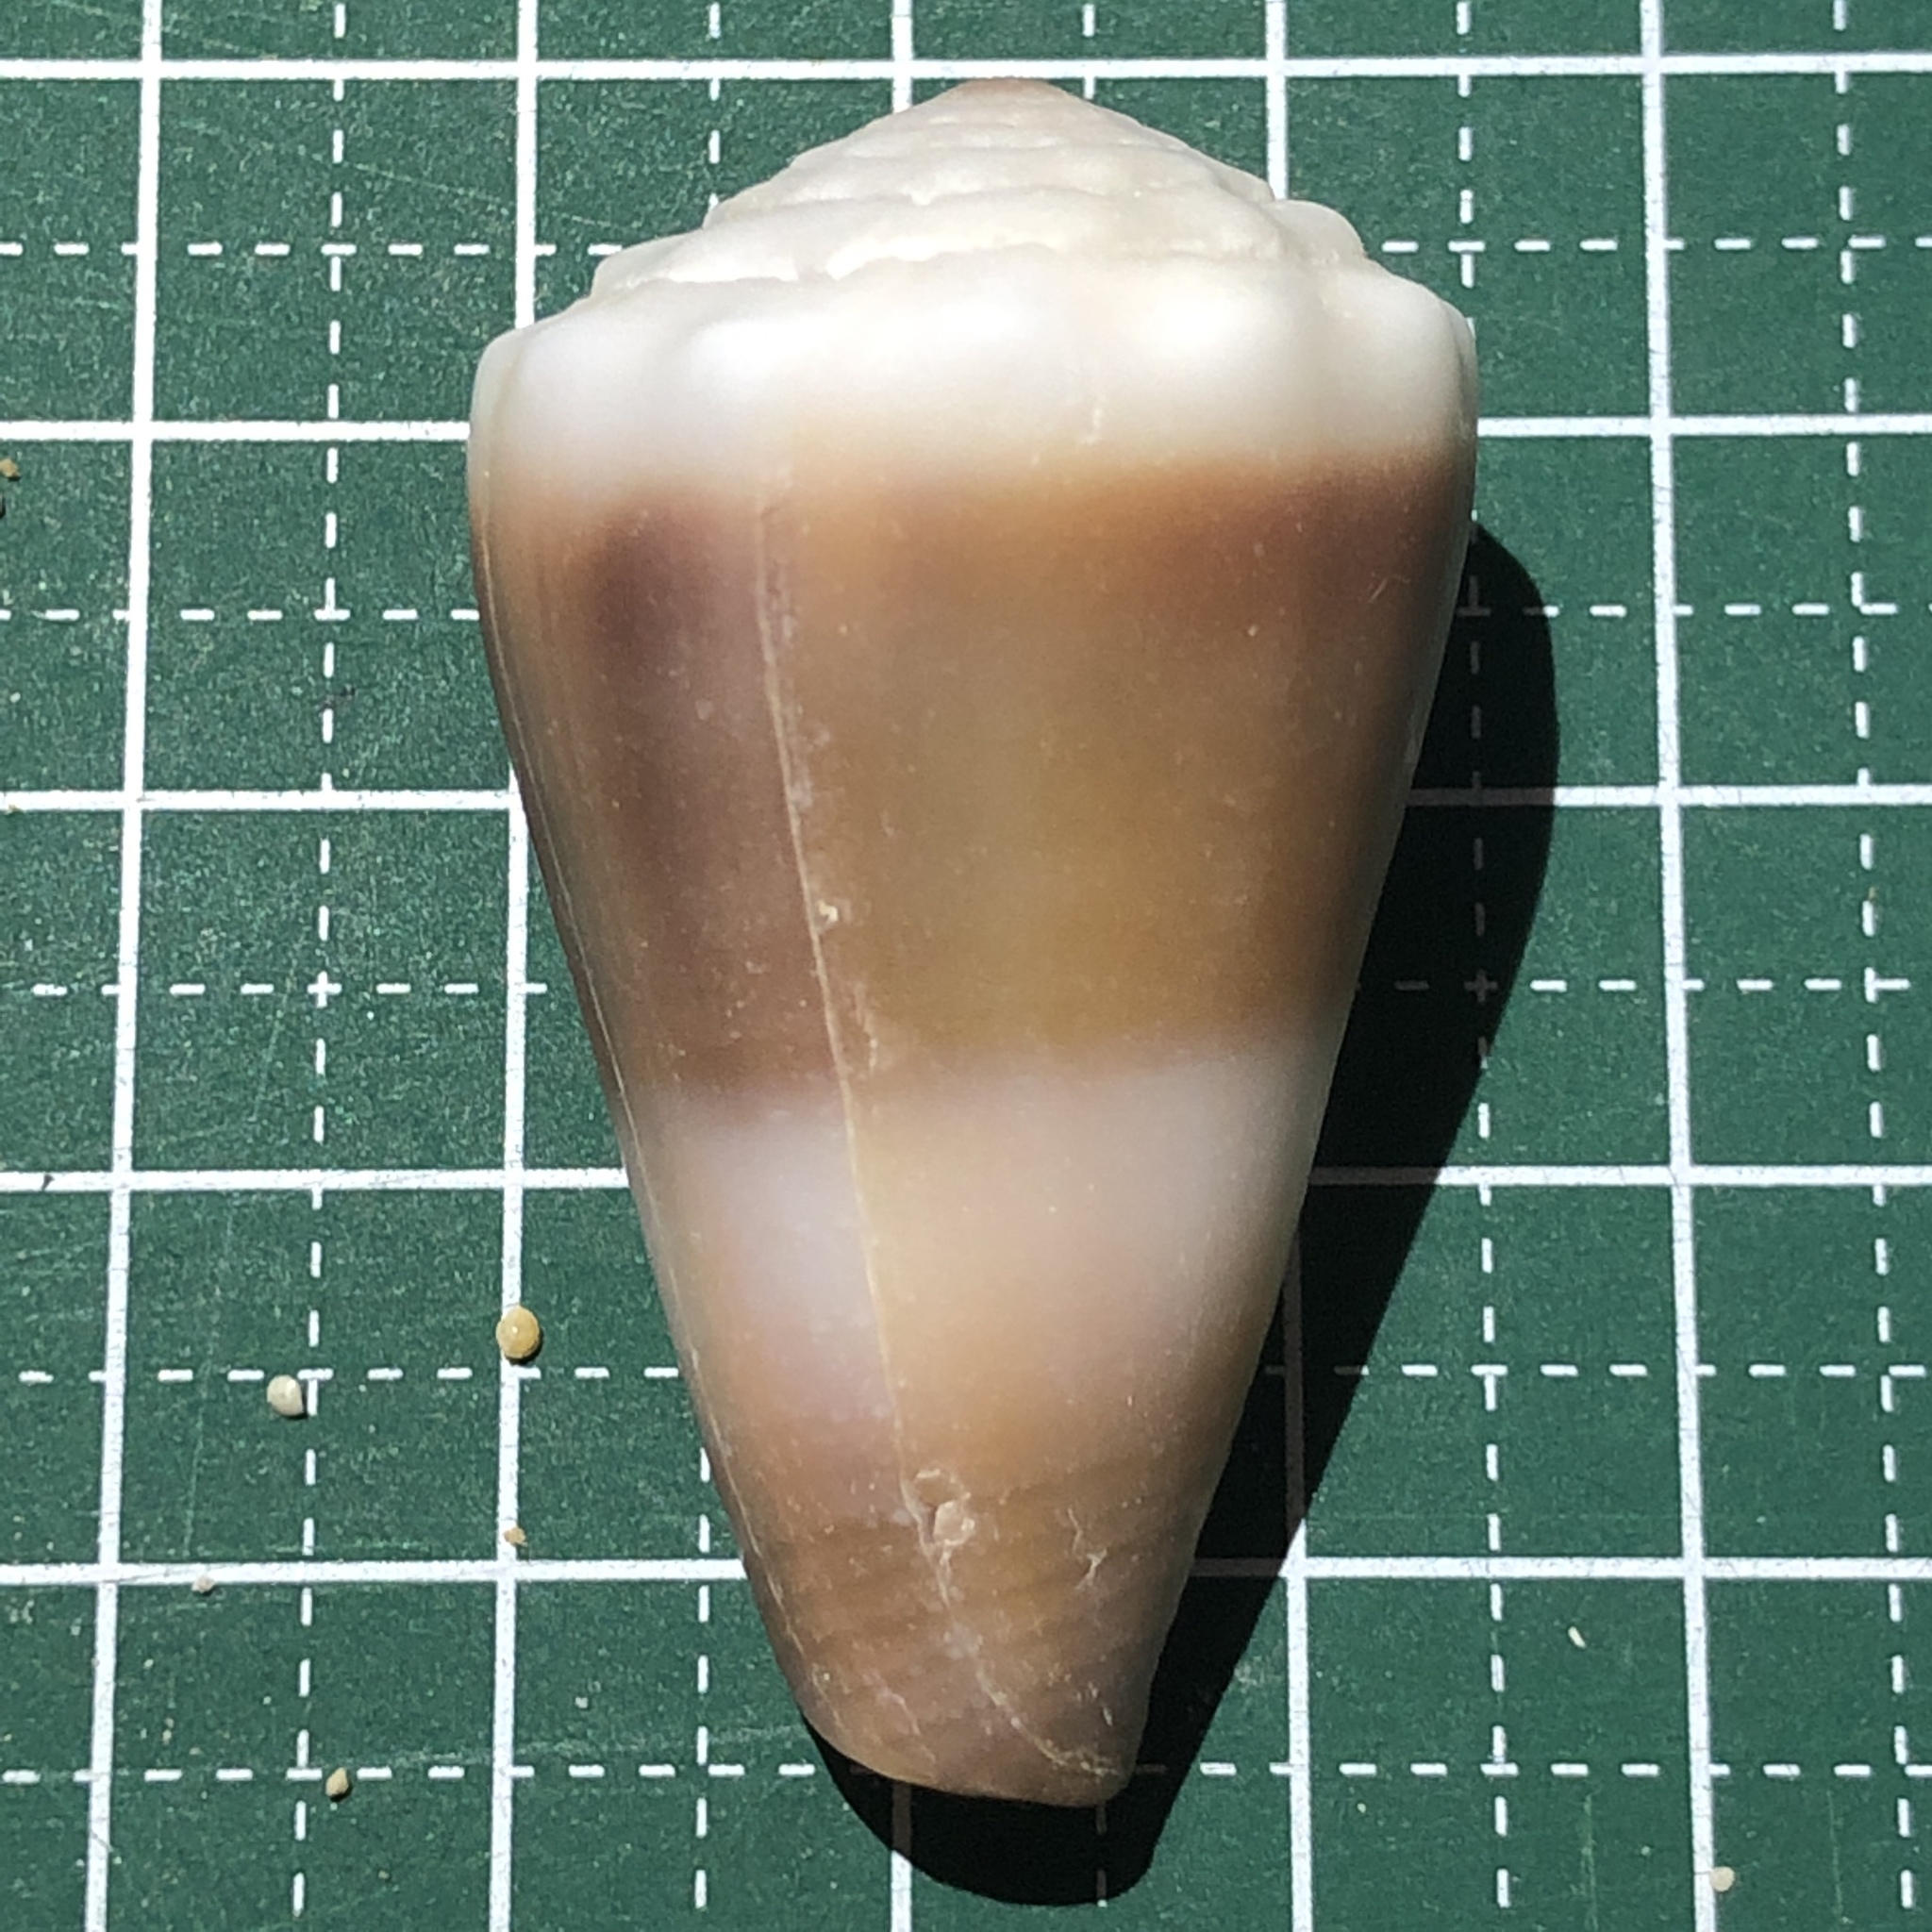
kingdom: Animalia
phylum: Mollusca
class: Gastropoda
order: Neogastropoda
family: Conidae
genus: Conus
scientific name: Conus lividus
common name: Livid cone
